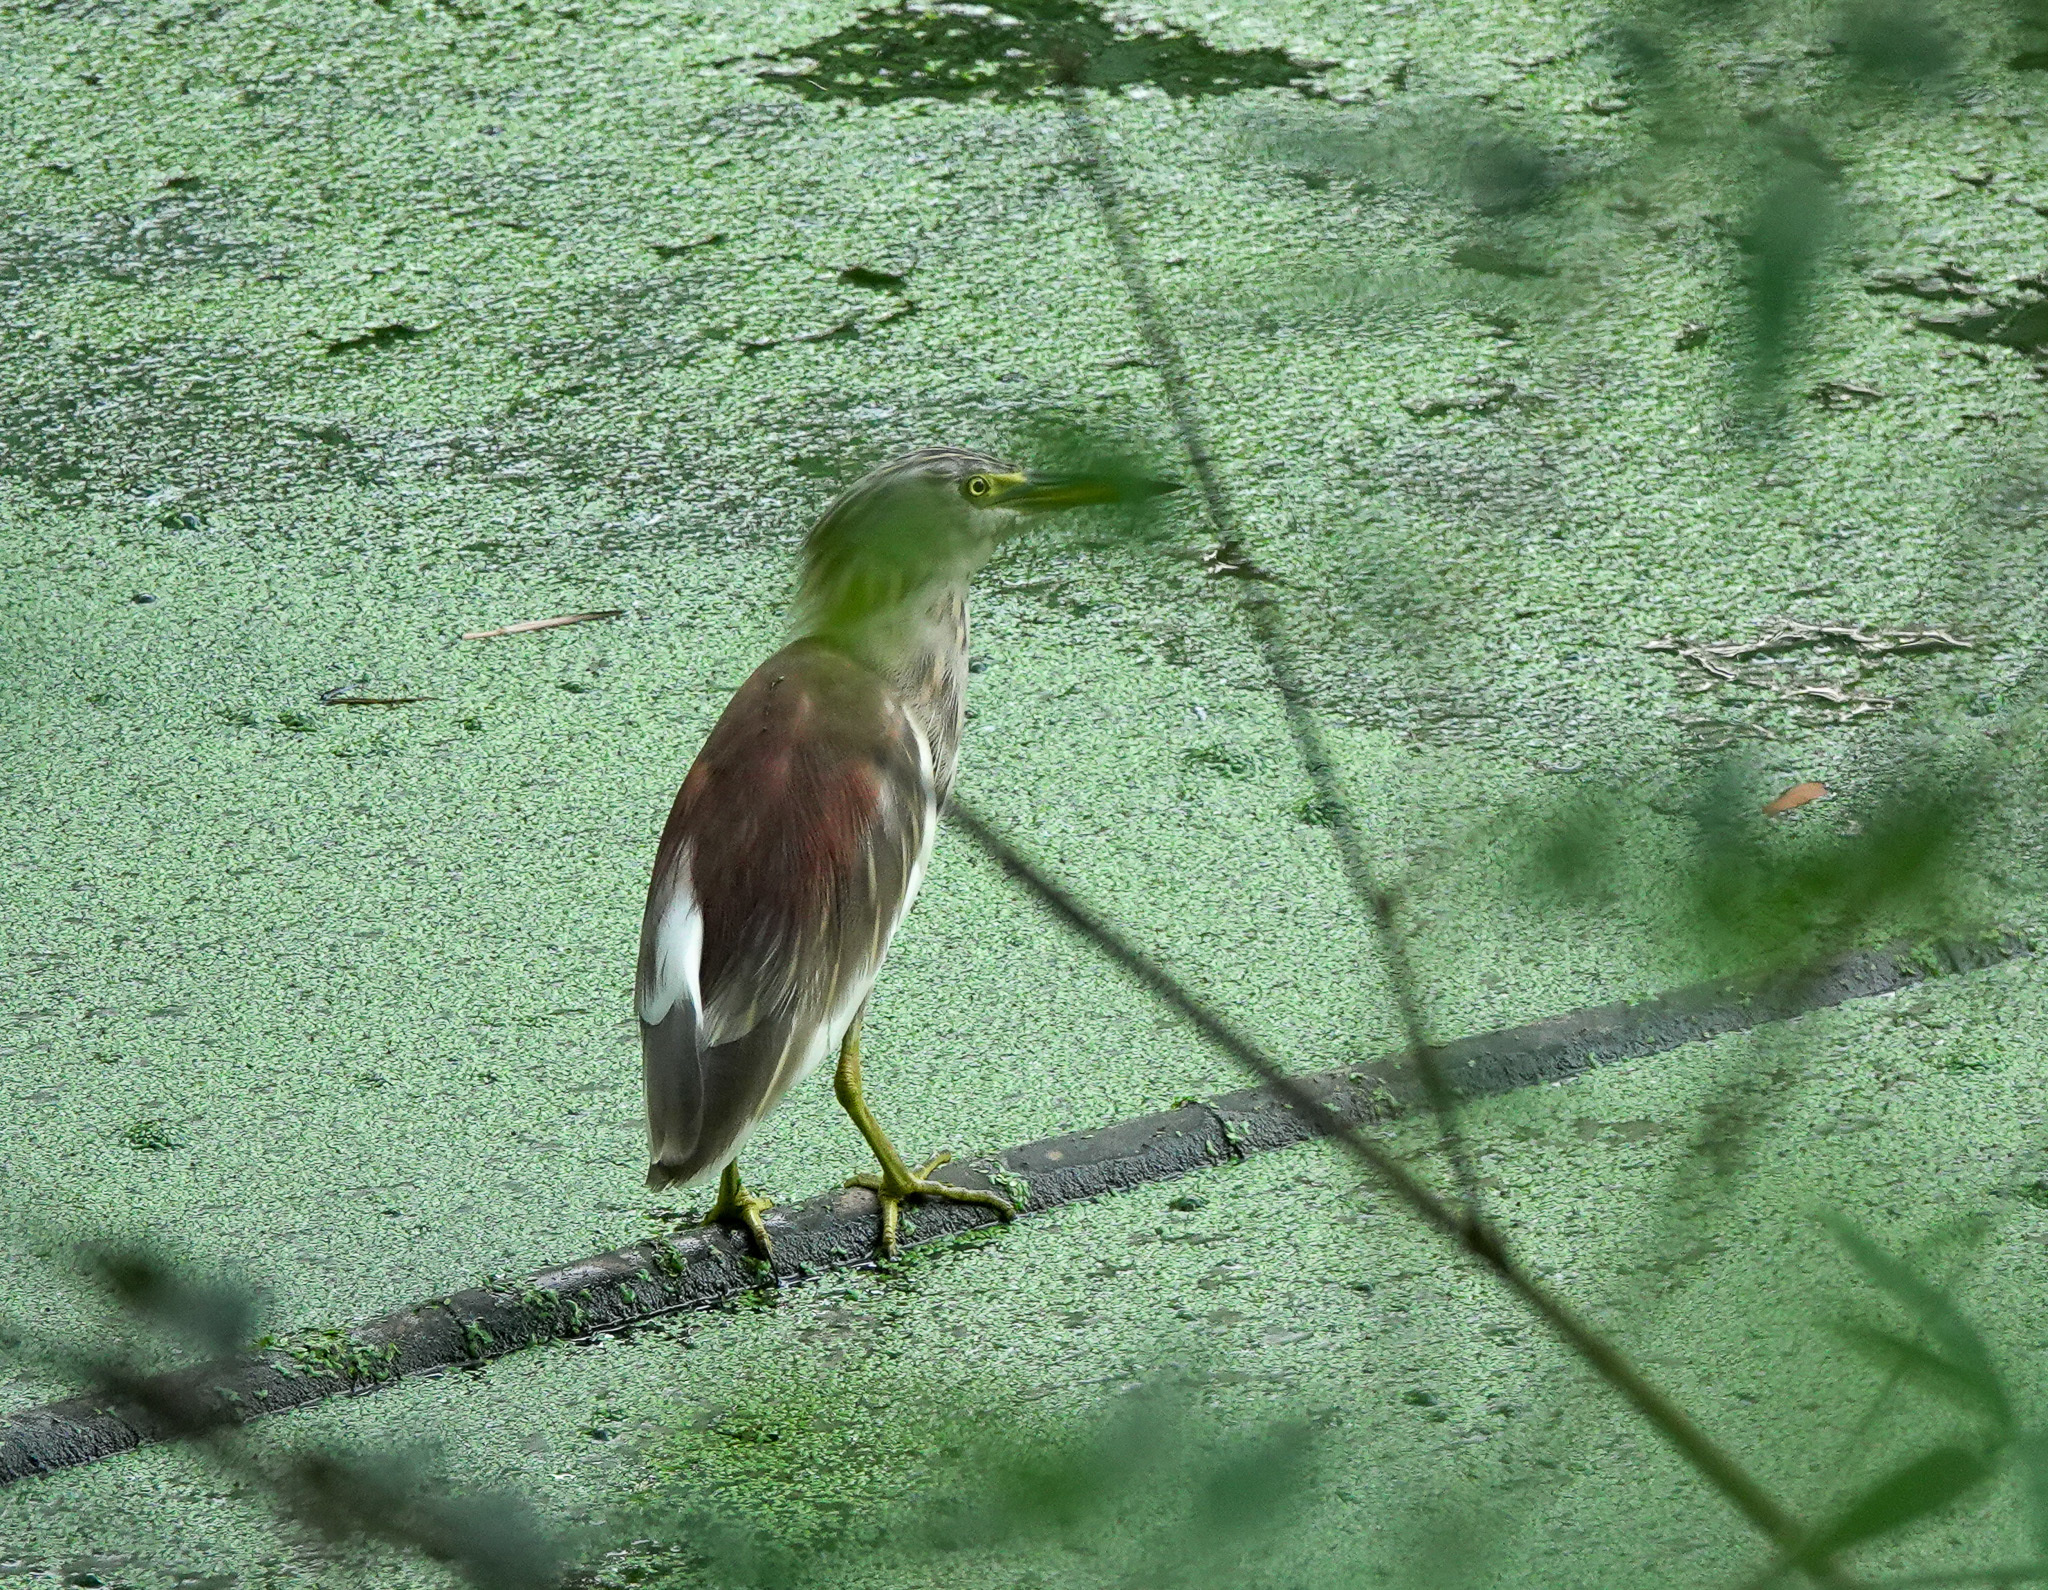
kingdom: Animalia
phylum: Chordata
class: Aves
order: Pelecaniformes
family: Ardeidae
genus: Ardeola
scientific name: Ardeola grayii
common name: Indian pond heron
